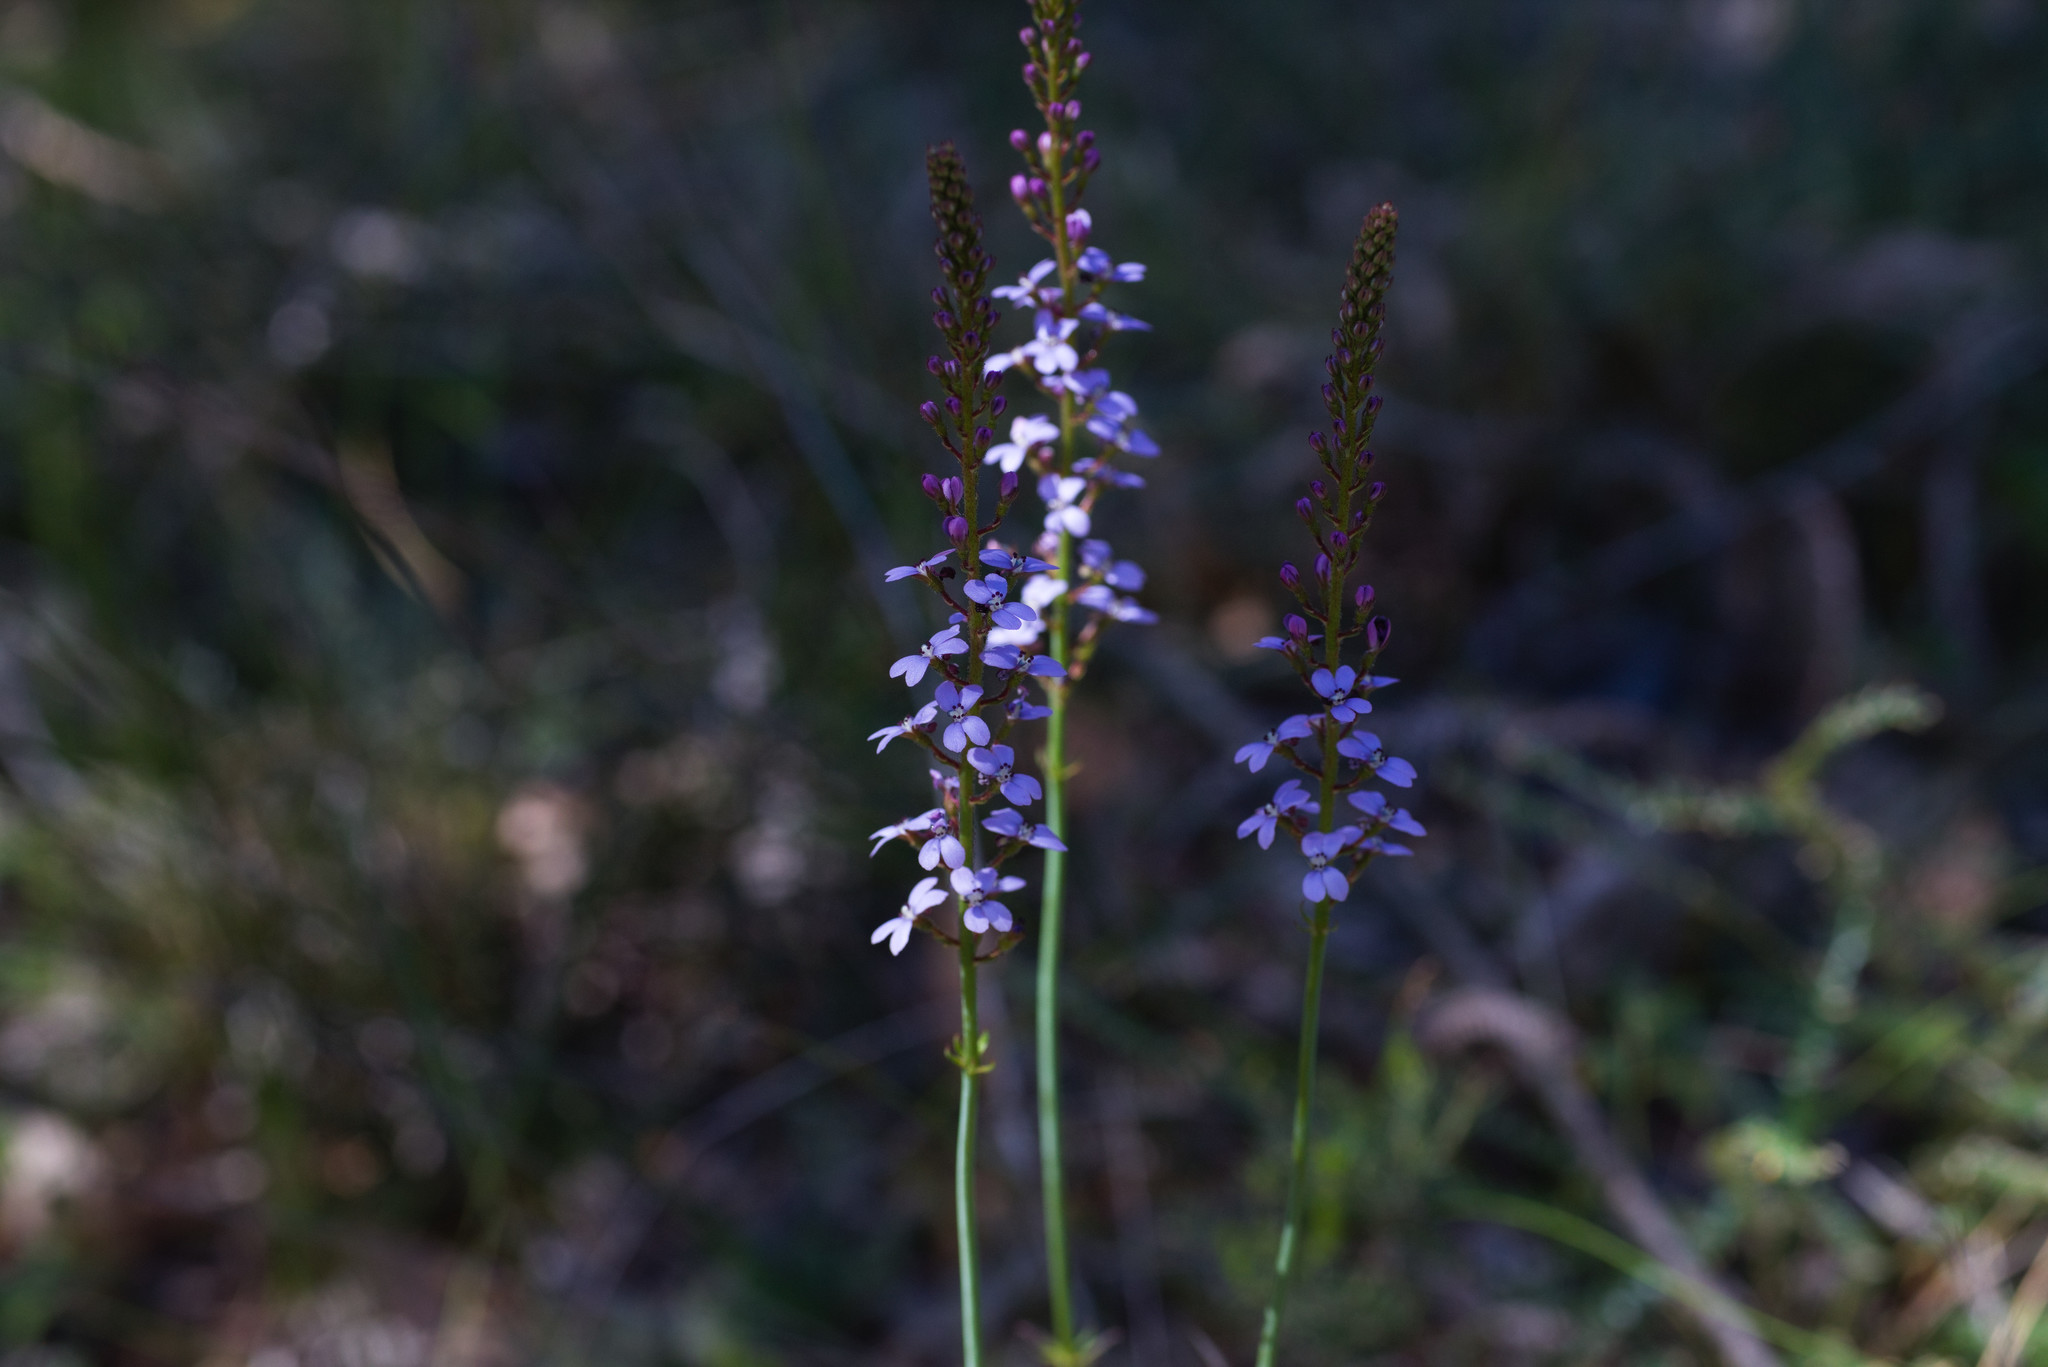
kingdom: Plantae
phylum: Tracheophyta
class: Magnoliopsida
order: Asterales
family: Stylidiaceae
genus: Stylidium
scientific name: Stylidium amoenum
